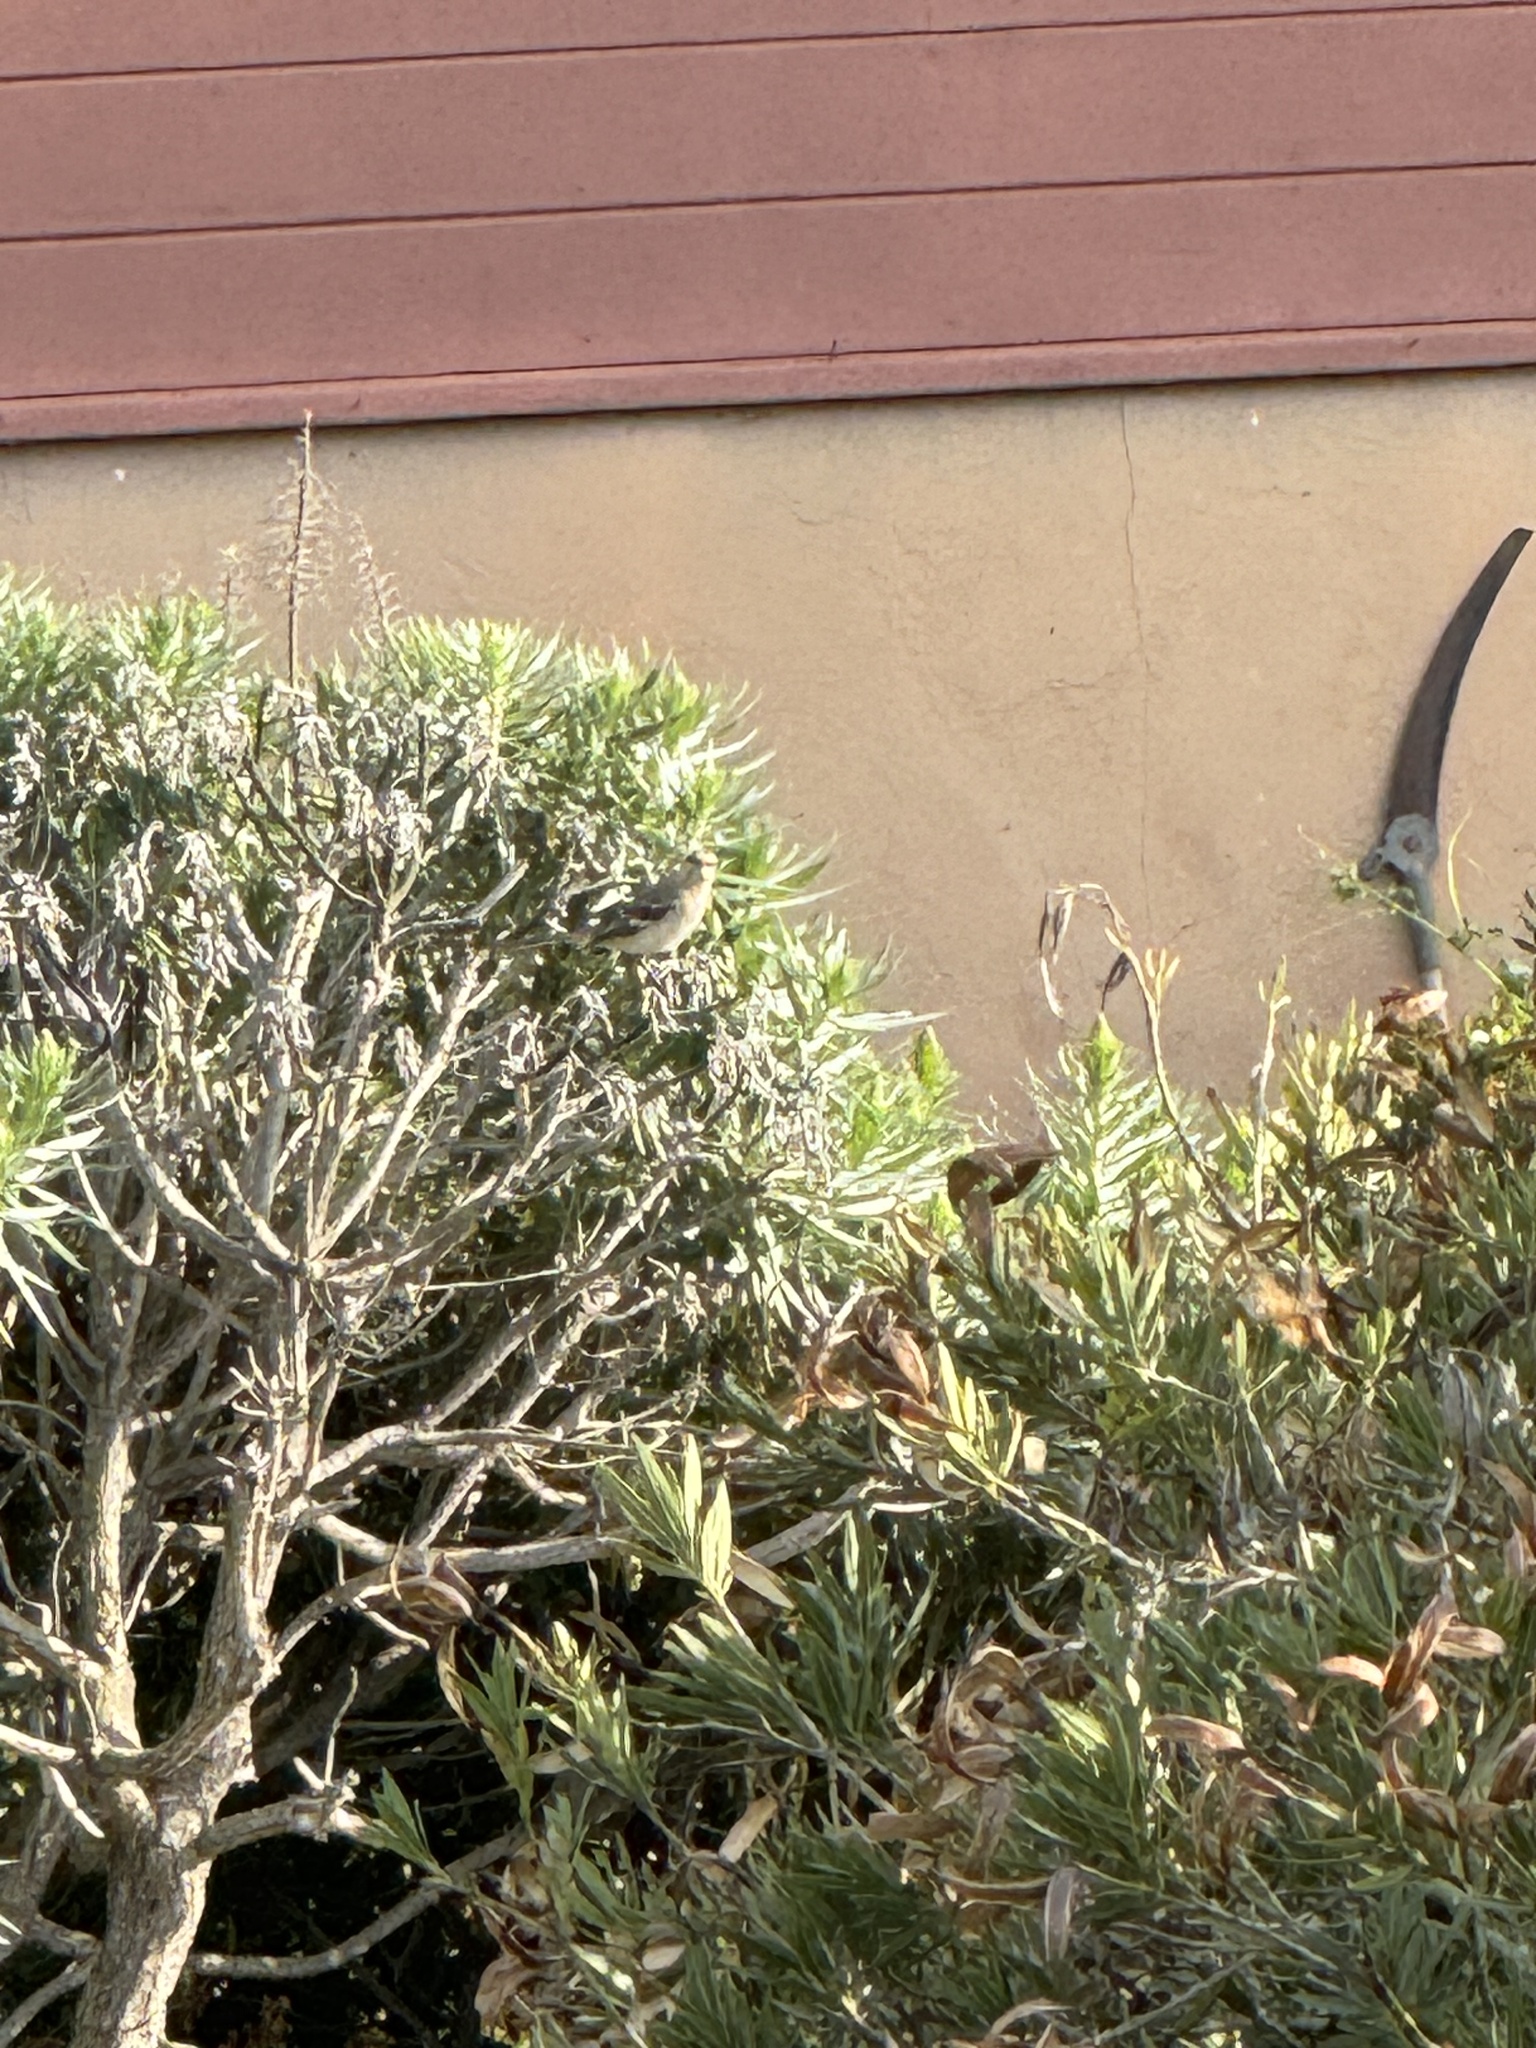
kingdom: Animalia
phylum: Chordata
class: Aves
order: Passeriformes
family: Mimidae
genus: Mimus
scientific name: Mimus polyglottos
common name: Northern mockingbird
